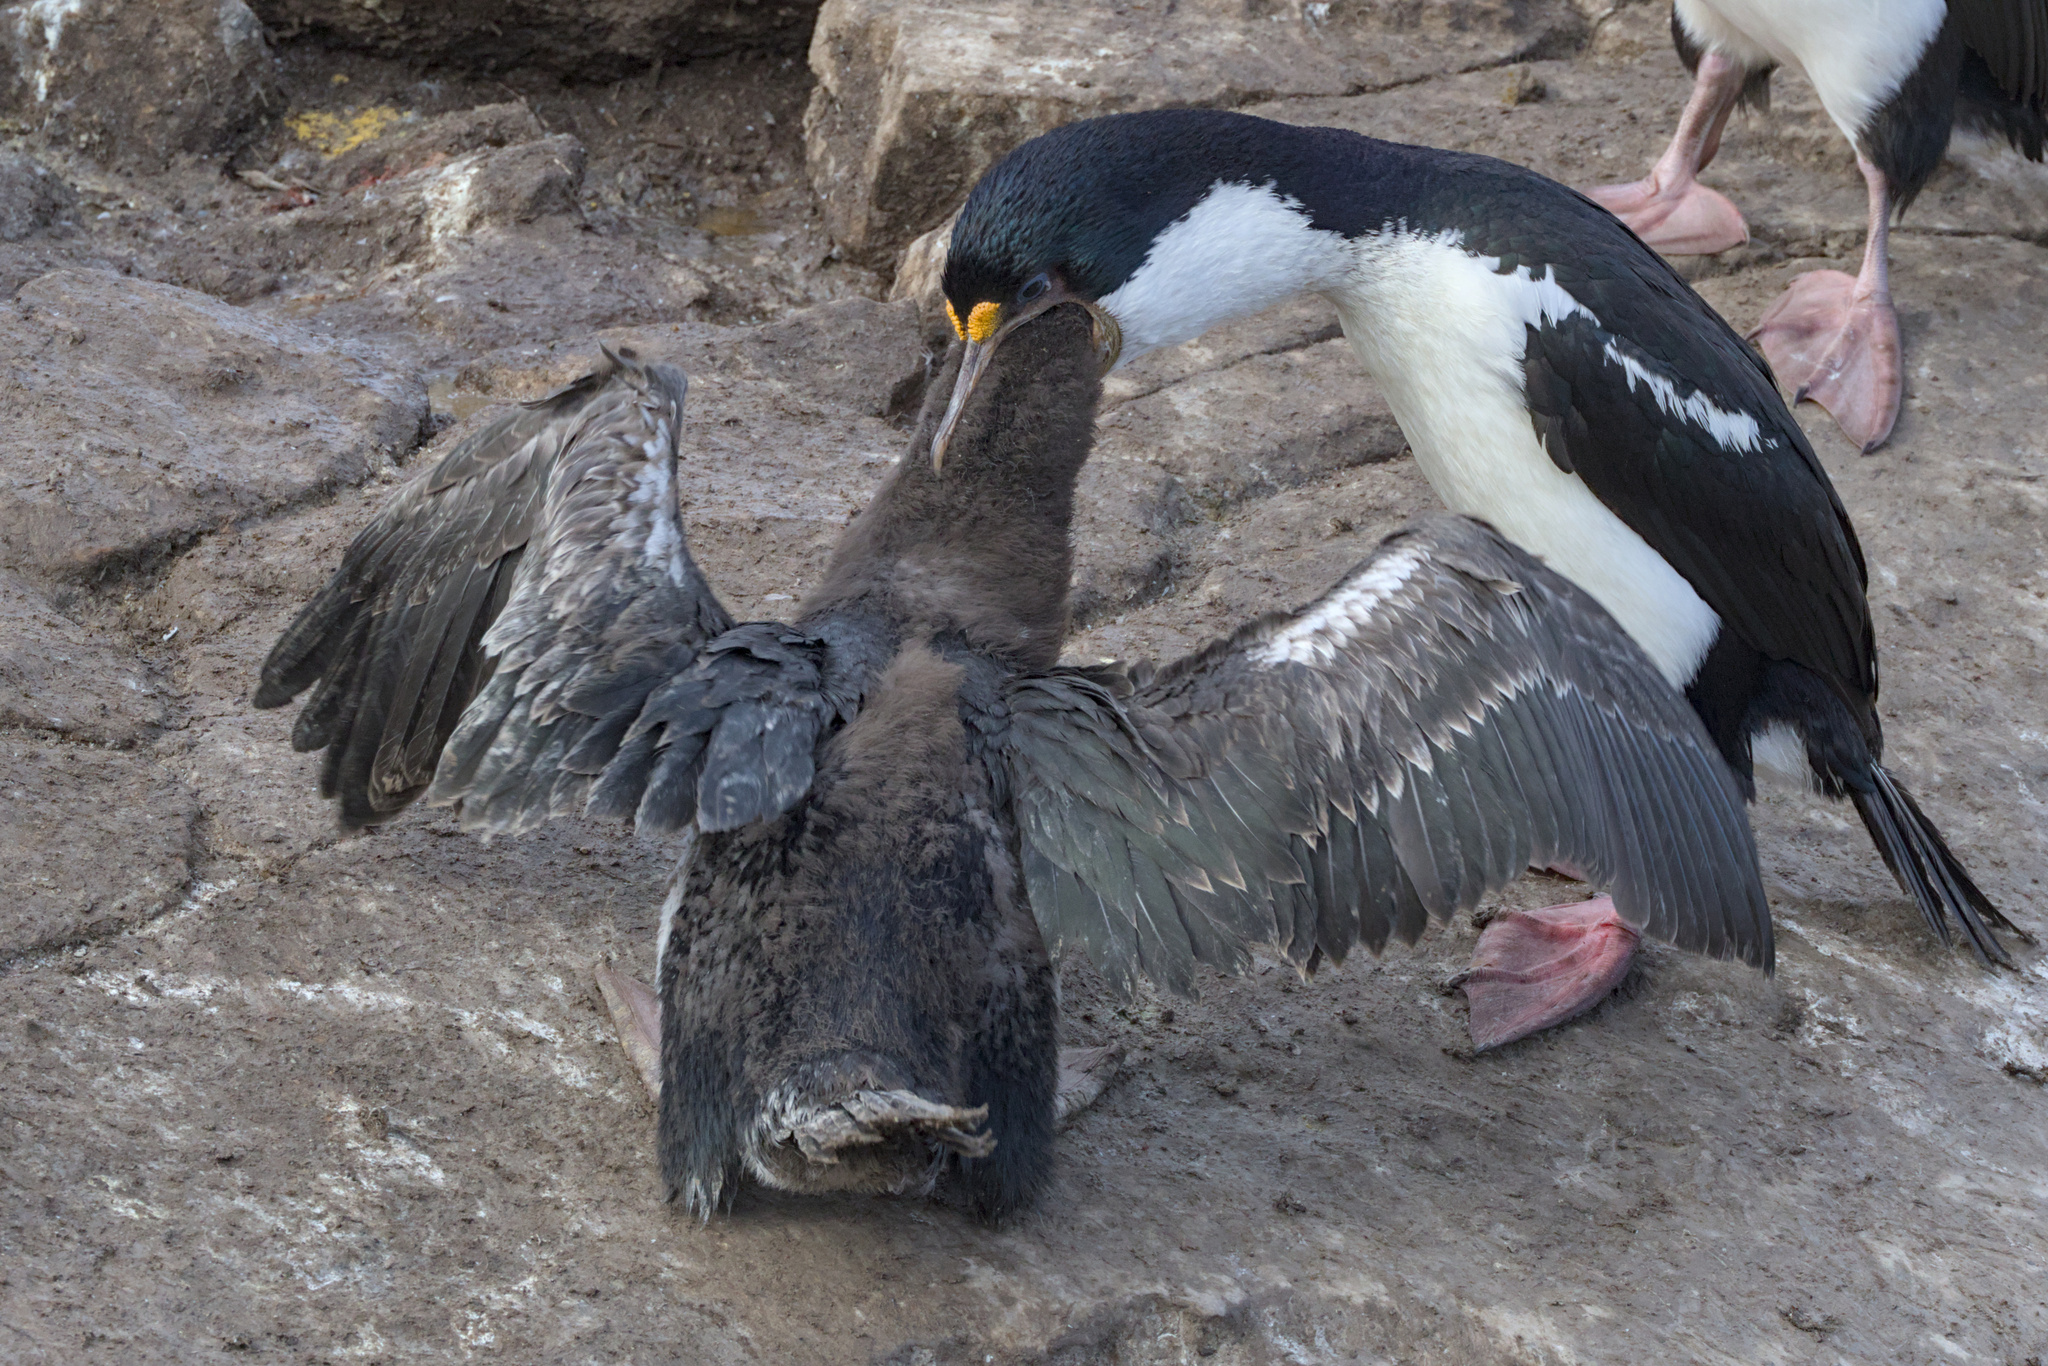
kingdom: Animalia
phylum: Chordata
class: Aves
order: Suliformes
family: Phalacrocoracidae
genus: Leucocarbo
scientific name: Leucocarbo atriceps
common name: Imperial shag
